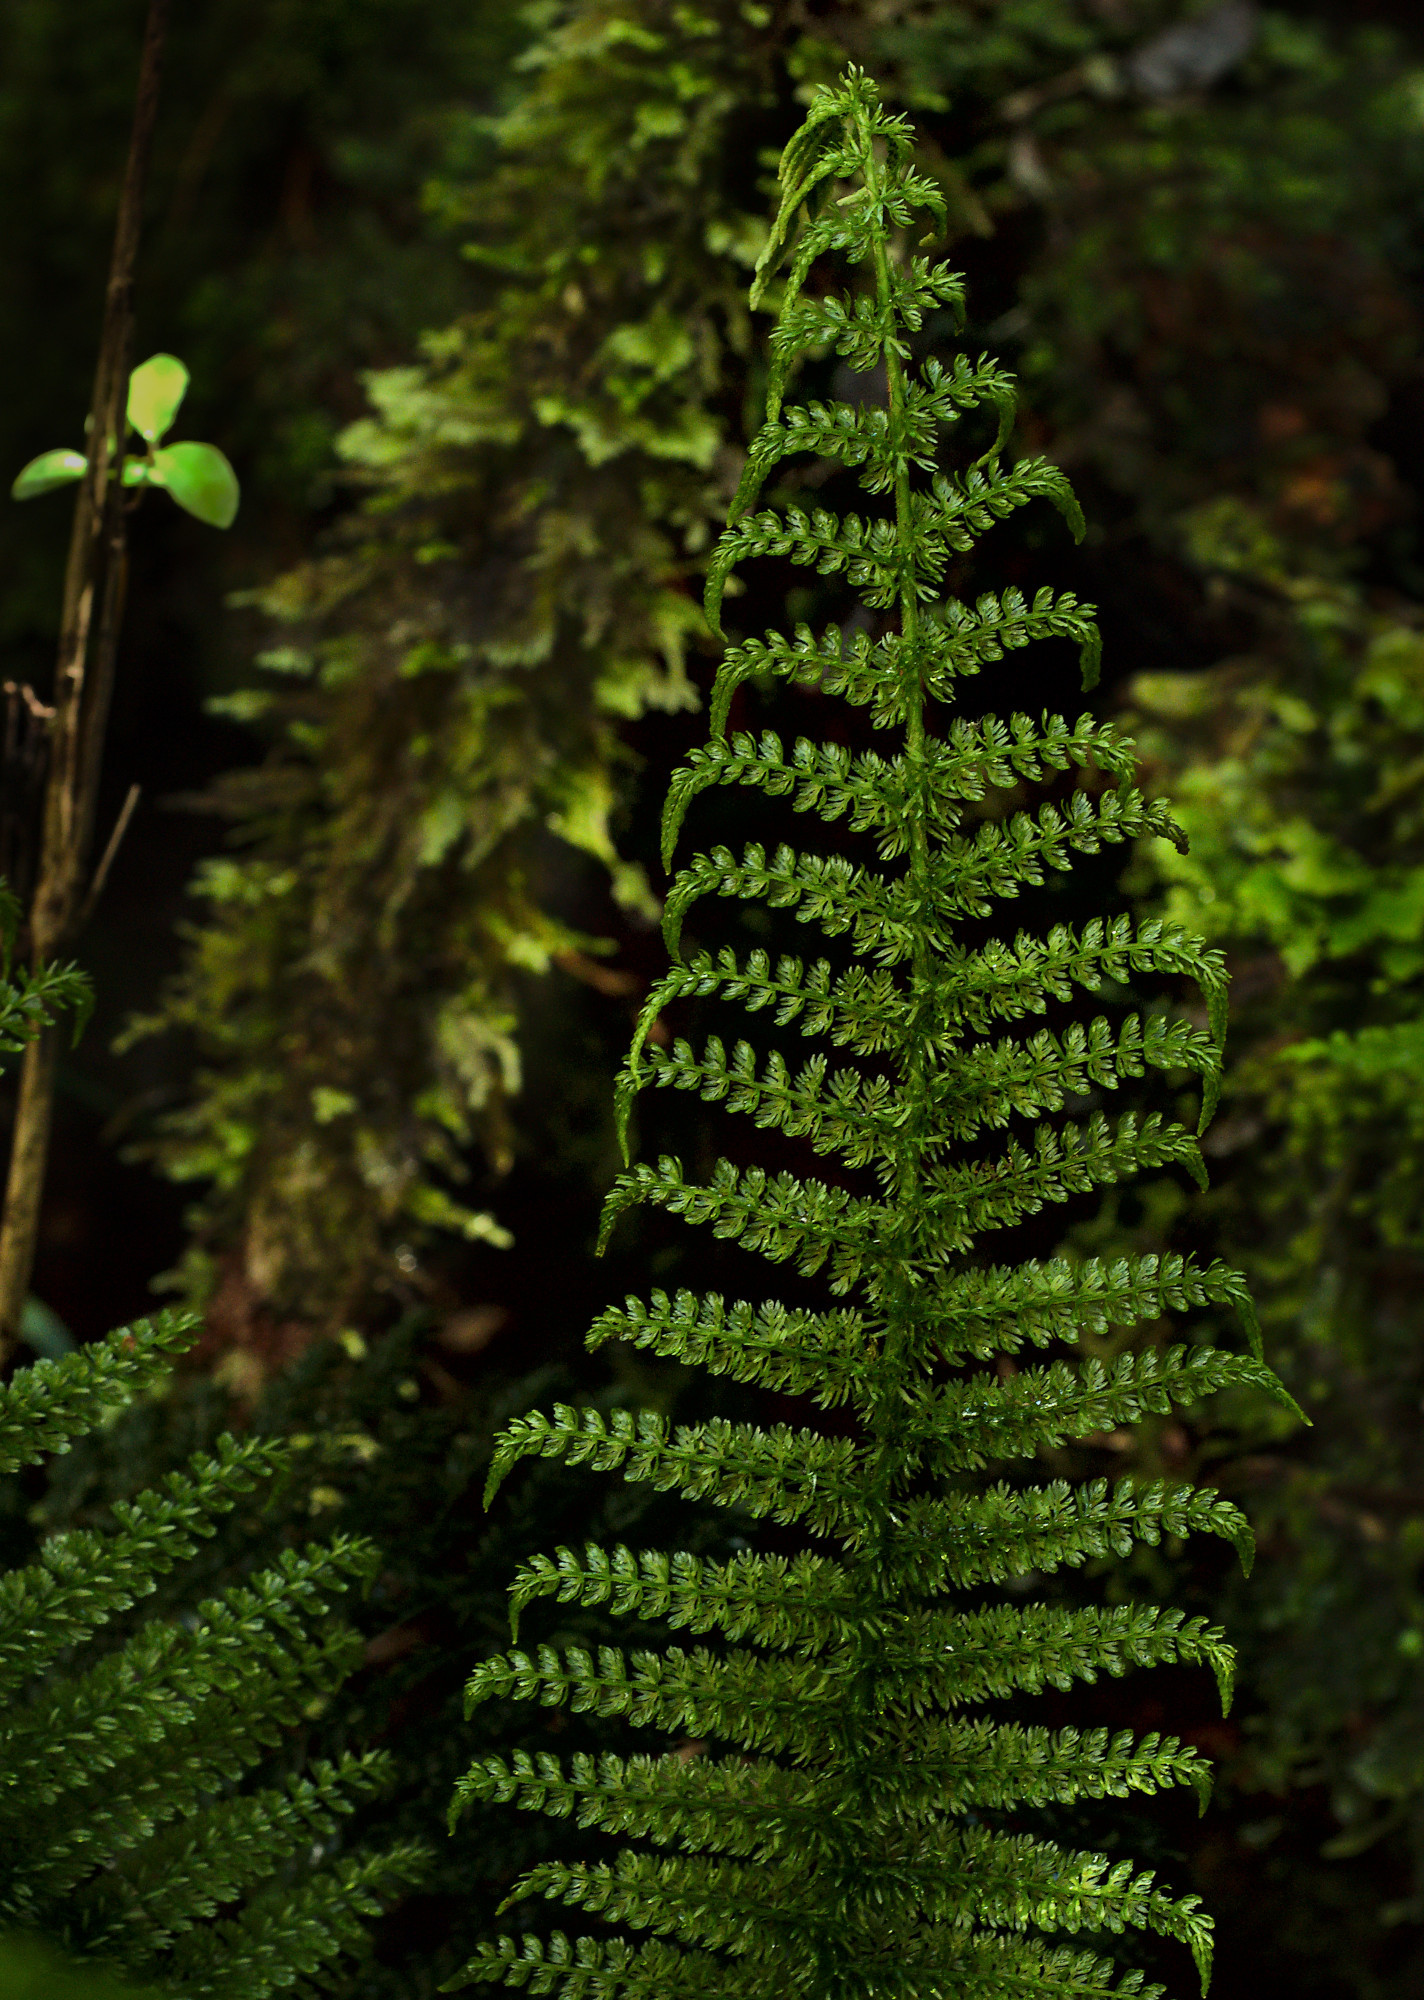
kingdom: Plantae
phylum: Tracheophyta
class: Polypodiopsida
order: Osmundales
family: Osmundaceae
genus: Leptopteris
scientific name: Leptopteris superba
